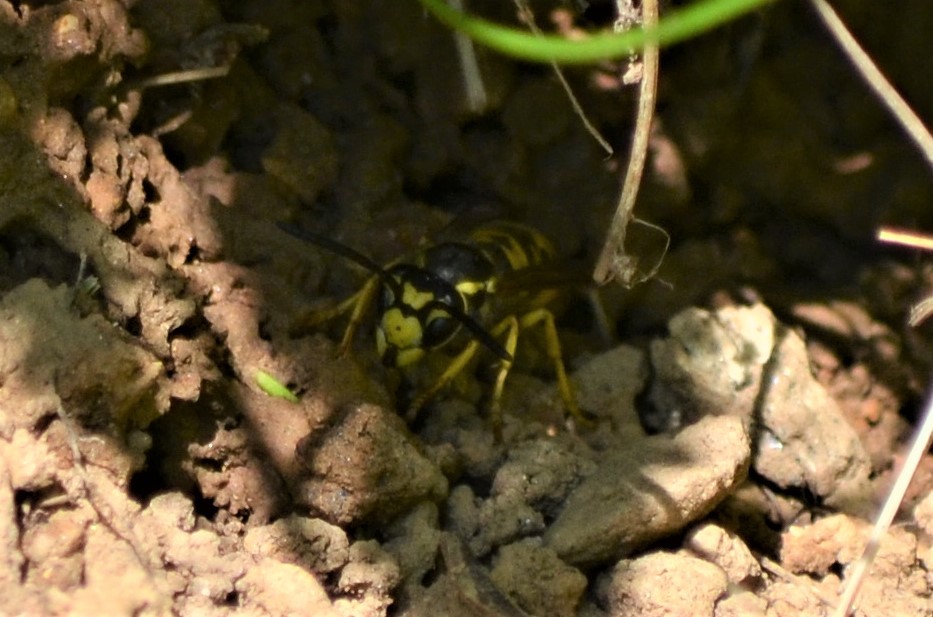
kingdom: Animalia
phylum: Arthropoda
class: Insecta
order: Hymenoptera
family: Vespidae
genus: Vespula
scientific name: Vespula germanica
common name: German wasp
